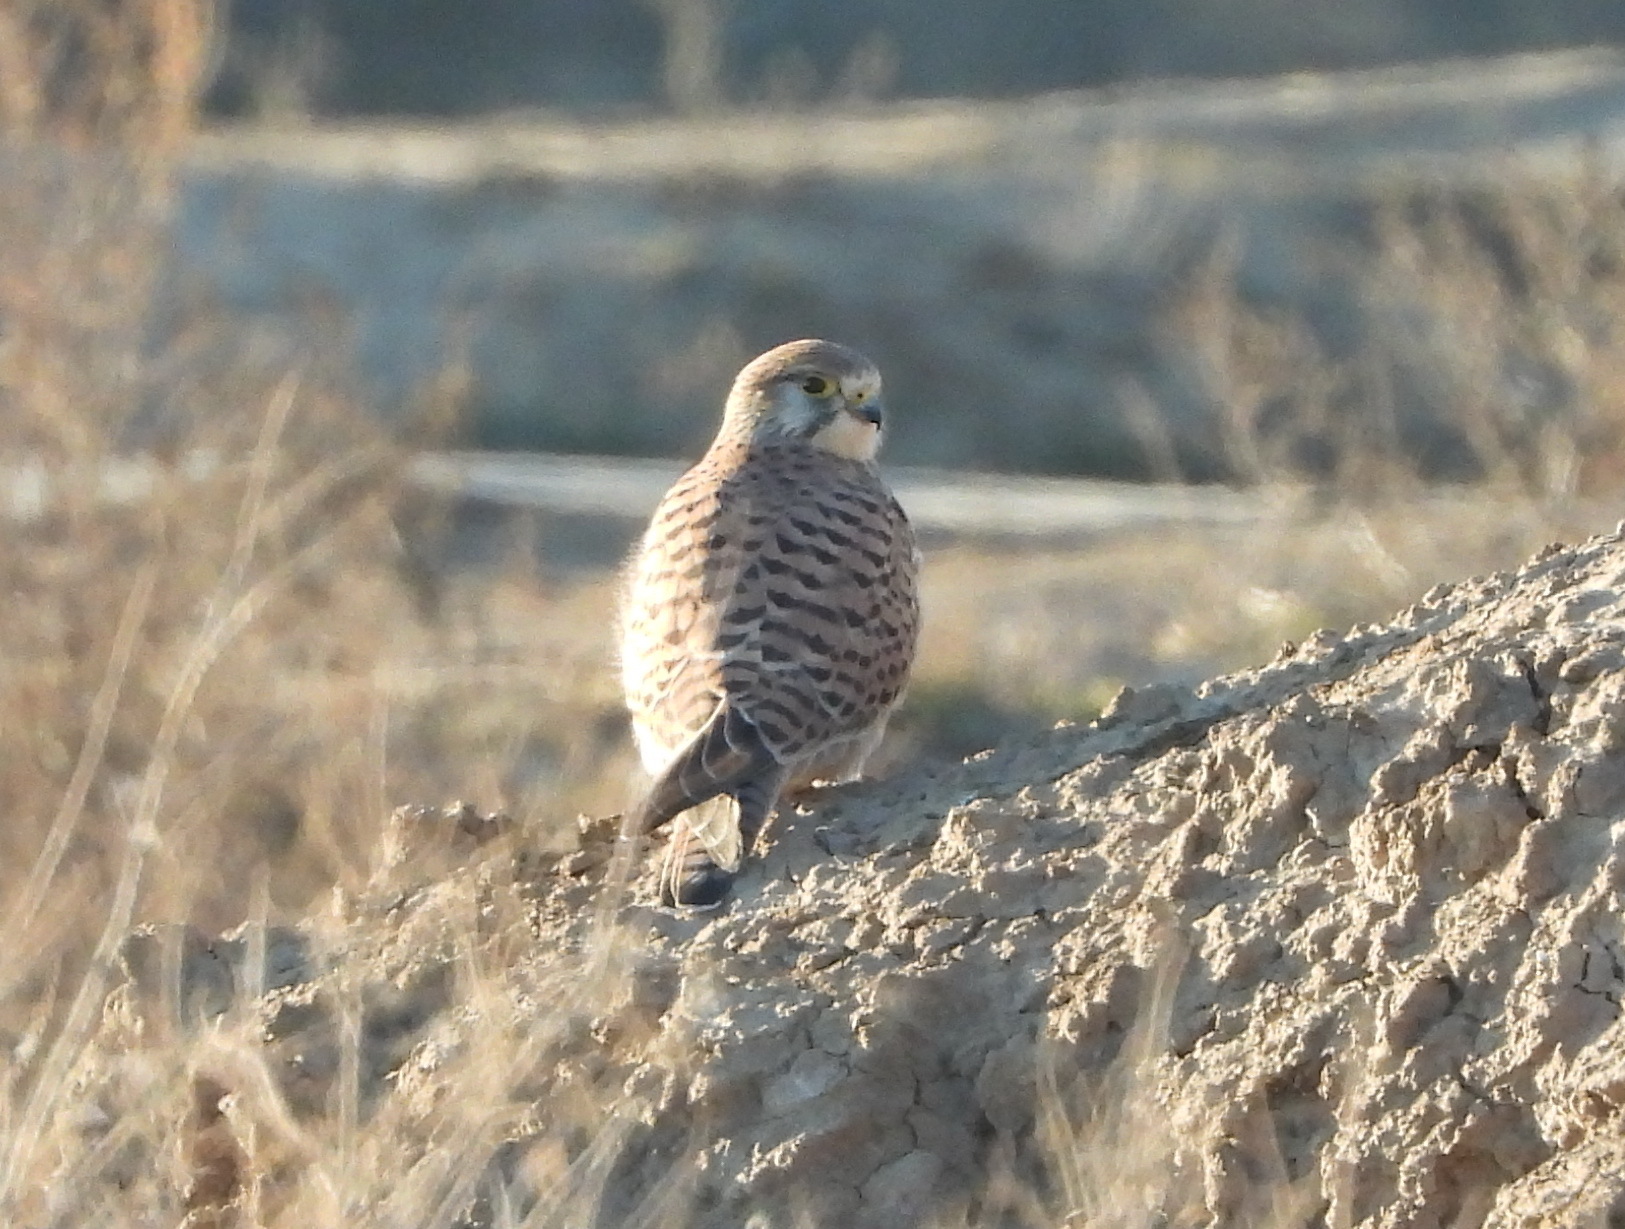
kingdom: Animalia
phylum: Chordata
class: Aves
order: Falconiformes
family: Falconidae
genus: Falco
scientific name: Falco tinnunculus
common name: Common kestrel
